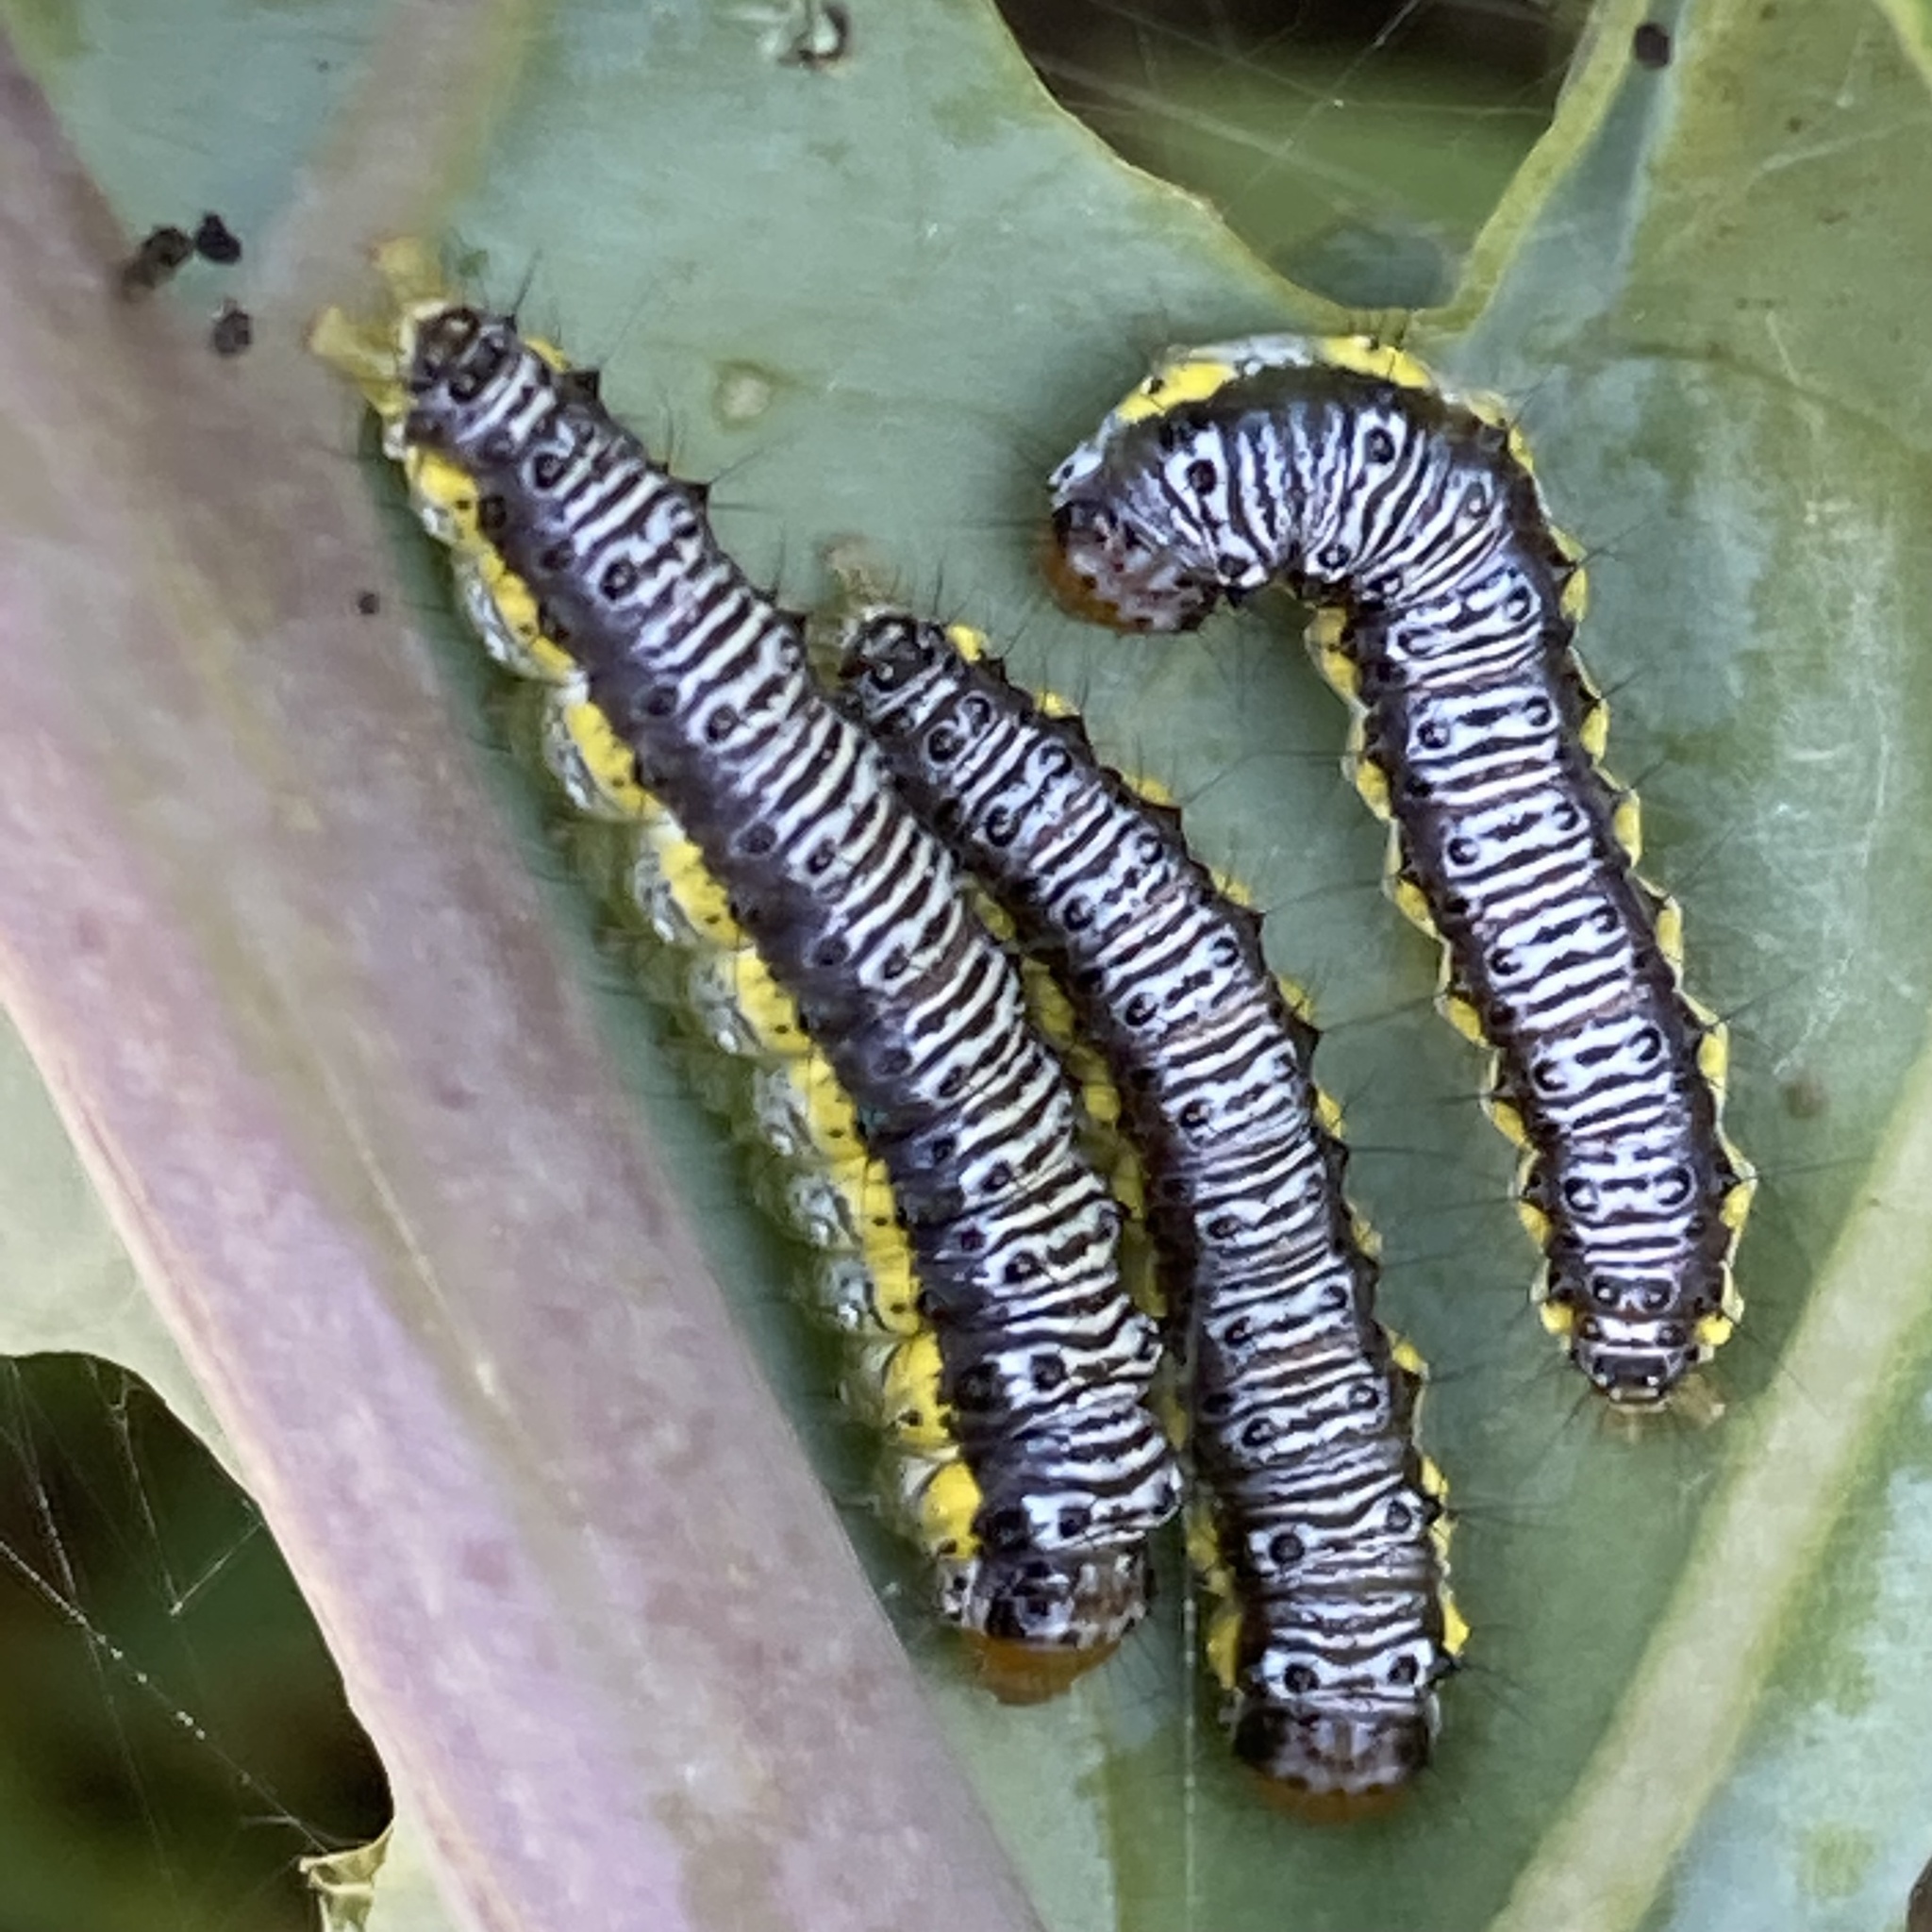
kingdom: Animalia
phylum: Arthropoda
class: Insecta
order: Lepidoptera
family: Crambidae
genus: Evergestis
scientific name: Evergestis rimosalis
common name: Cross-striped cabbageworm moth
